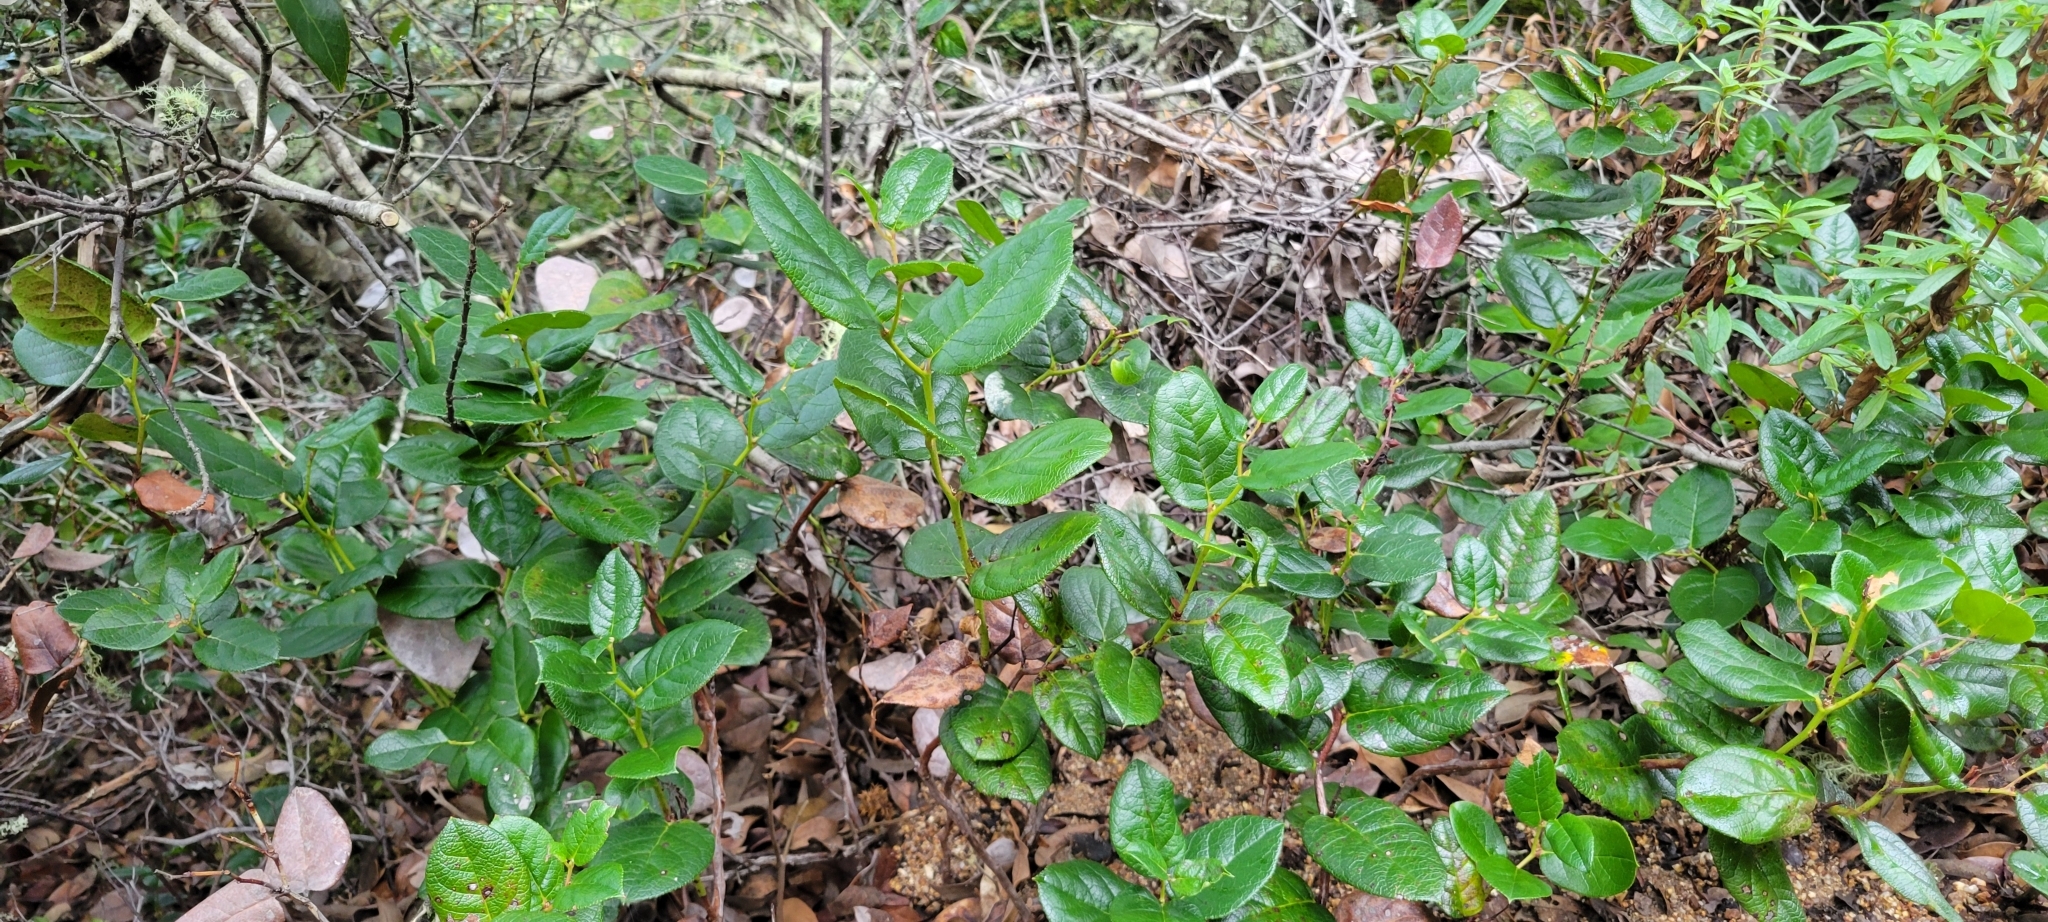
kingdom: Plantae
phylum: Tracheophyta
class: Magnoliopsida
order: Ericales
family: Ericaceae
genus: Gaultheria
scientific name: Gaultheria shallon
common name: Shallon
